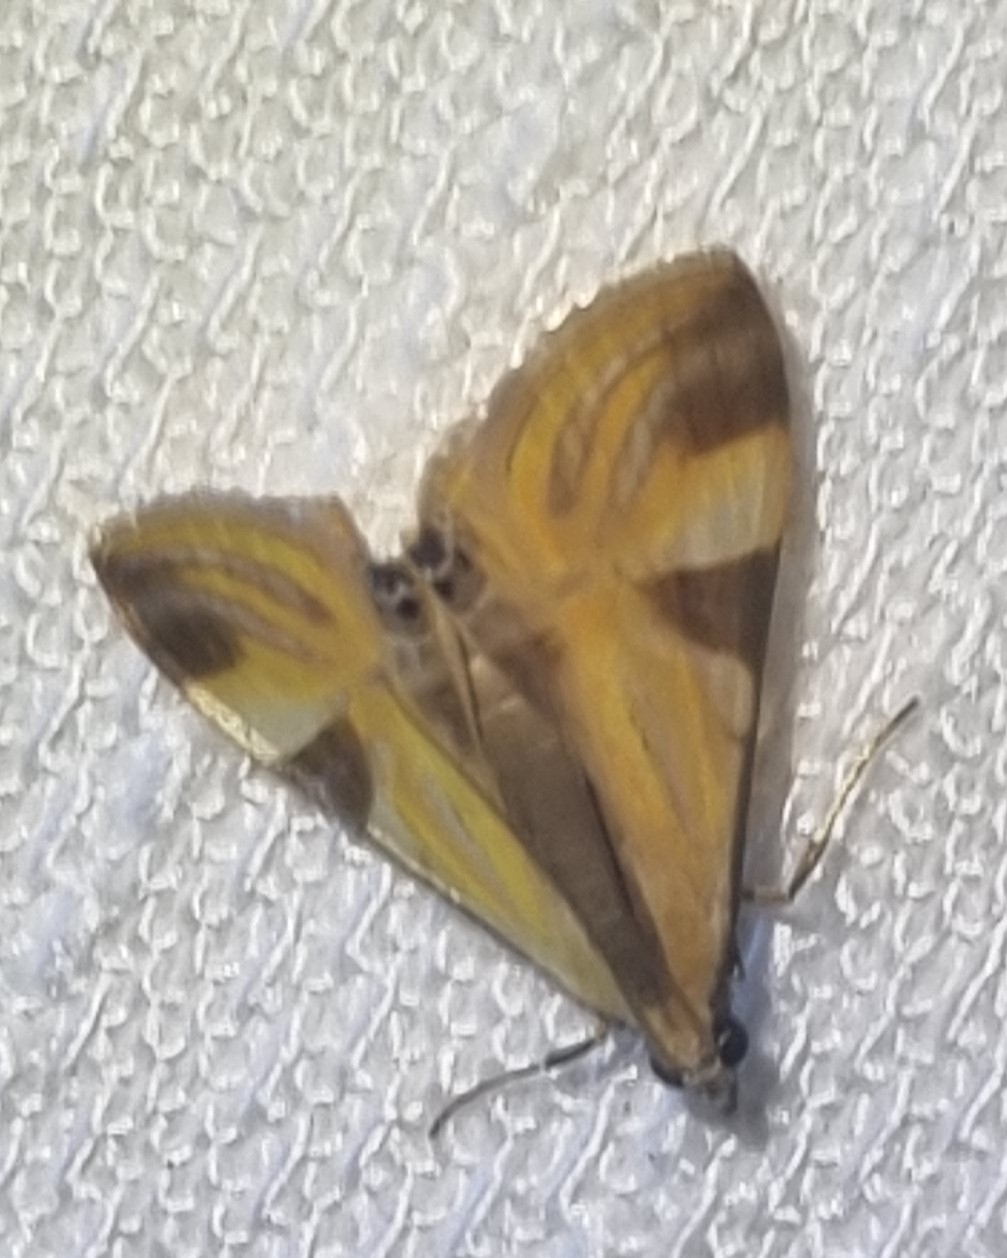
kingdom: Animalia
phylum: Arthropoda
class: Insecta
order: Lepidoptera
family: Crambidae
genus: Talanga
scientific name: Talanga tolumnialis
